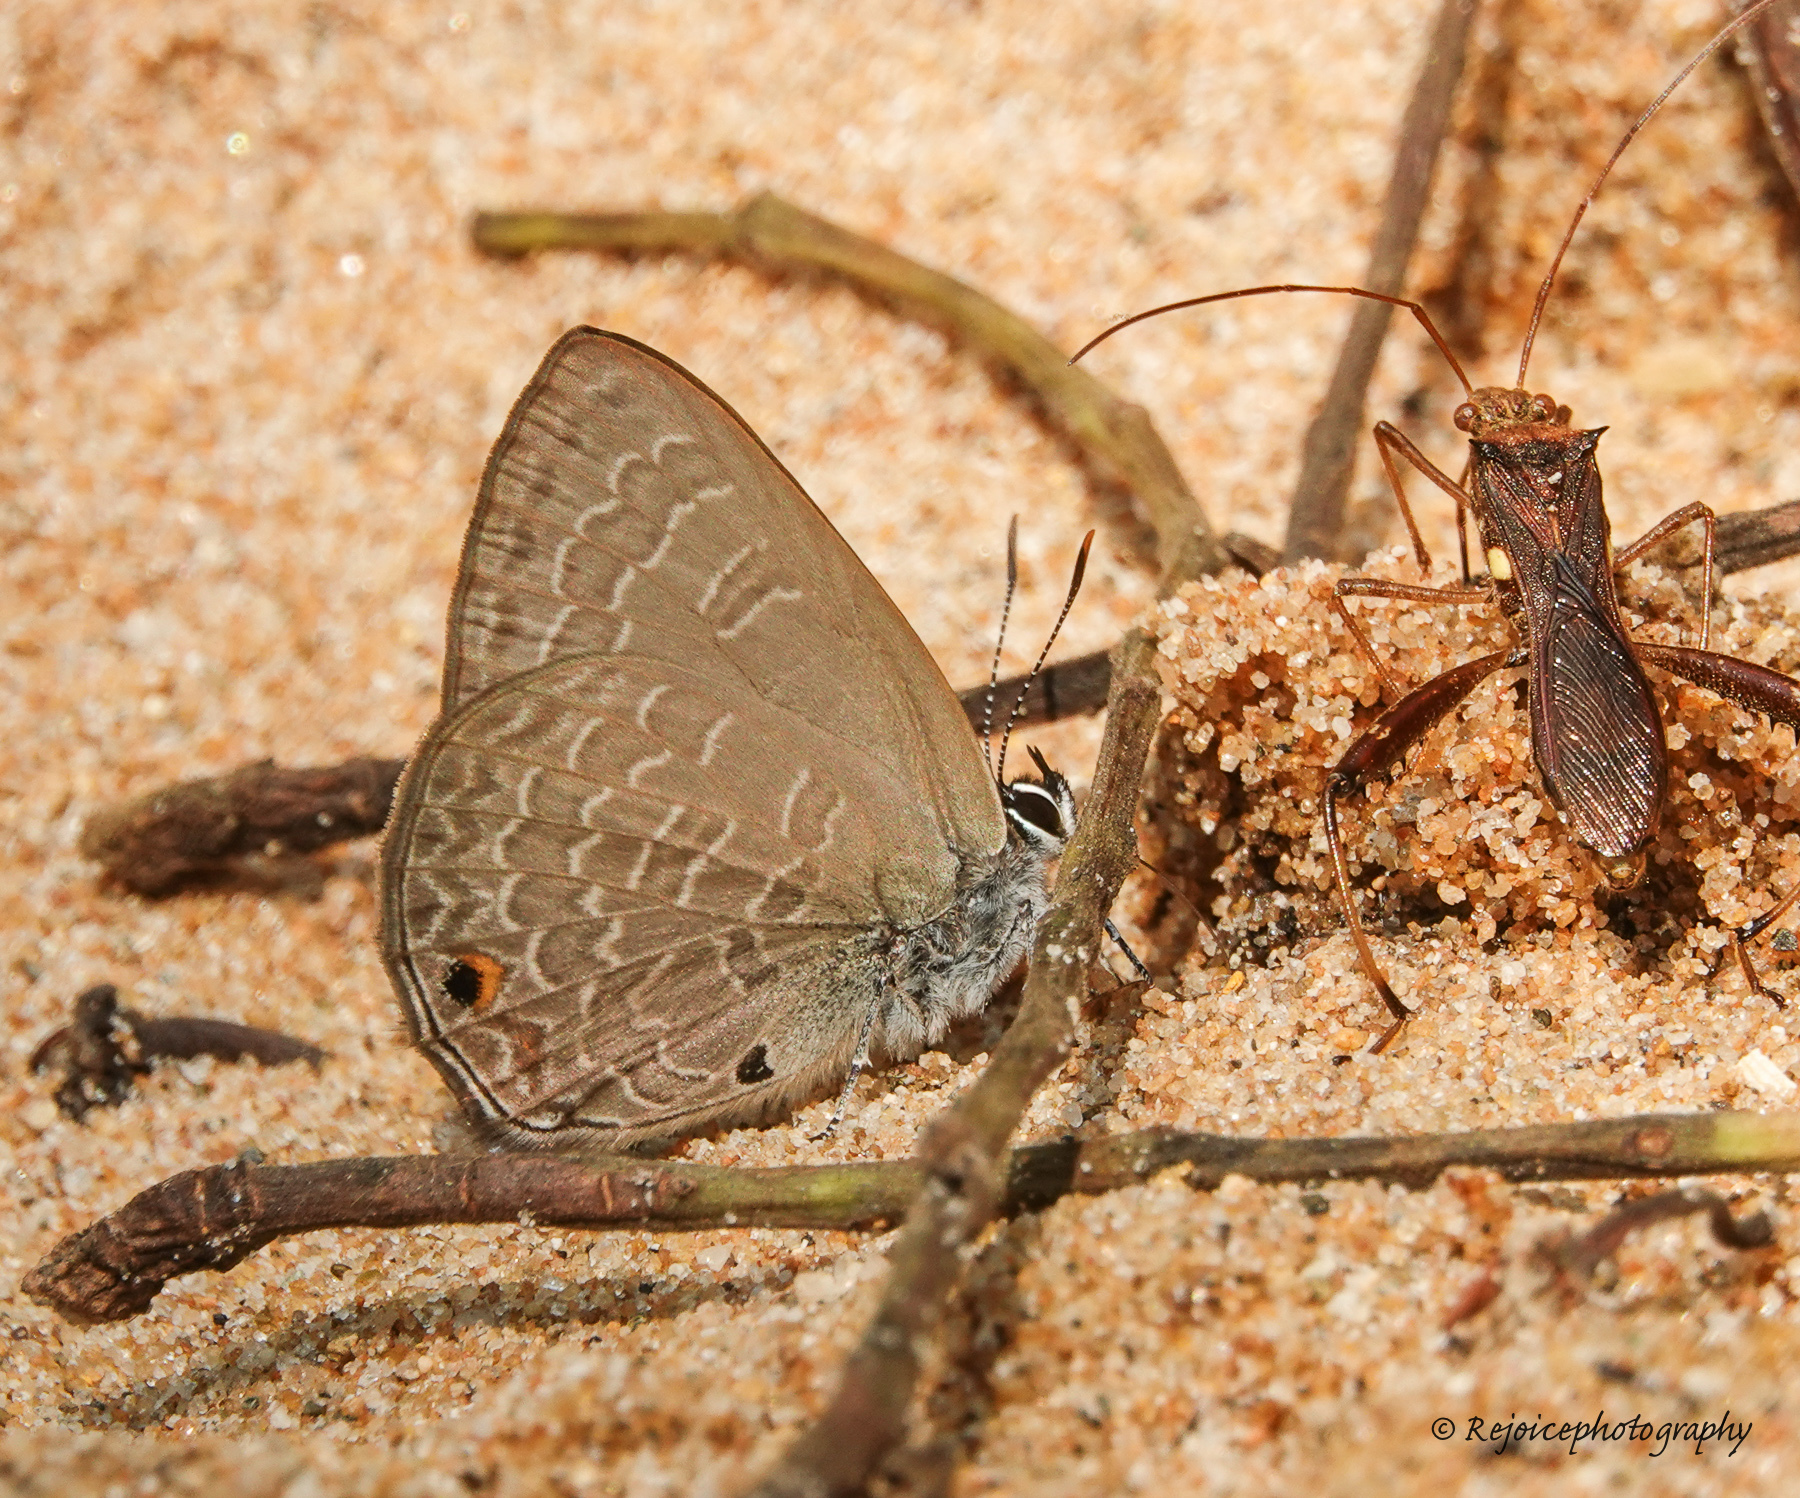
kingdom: Animalia
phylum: Arthropoda
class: Insecta
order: Lepidoptera
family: Lycaenidae
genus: Anthene
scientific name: Anthene emolus
